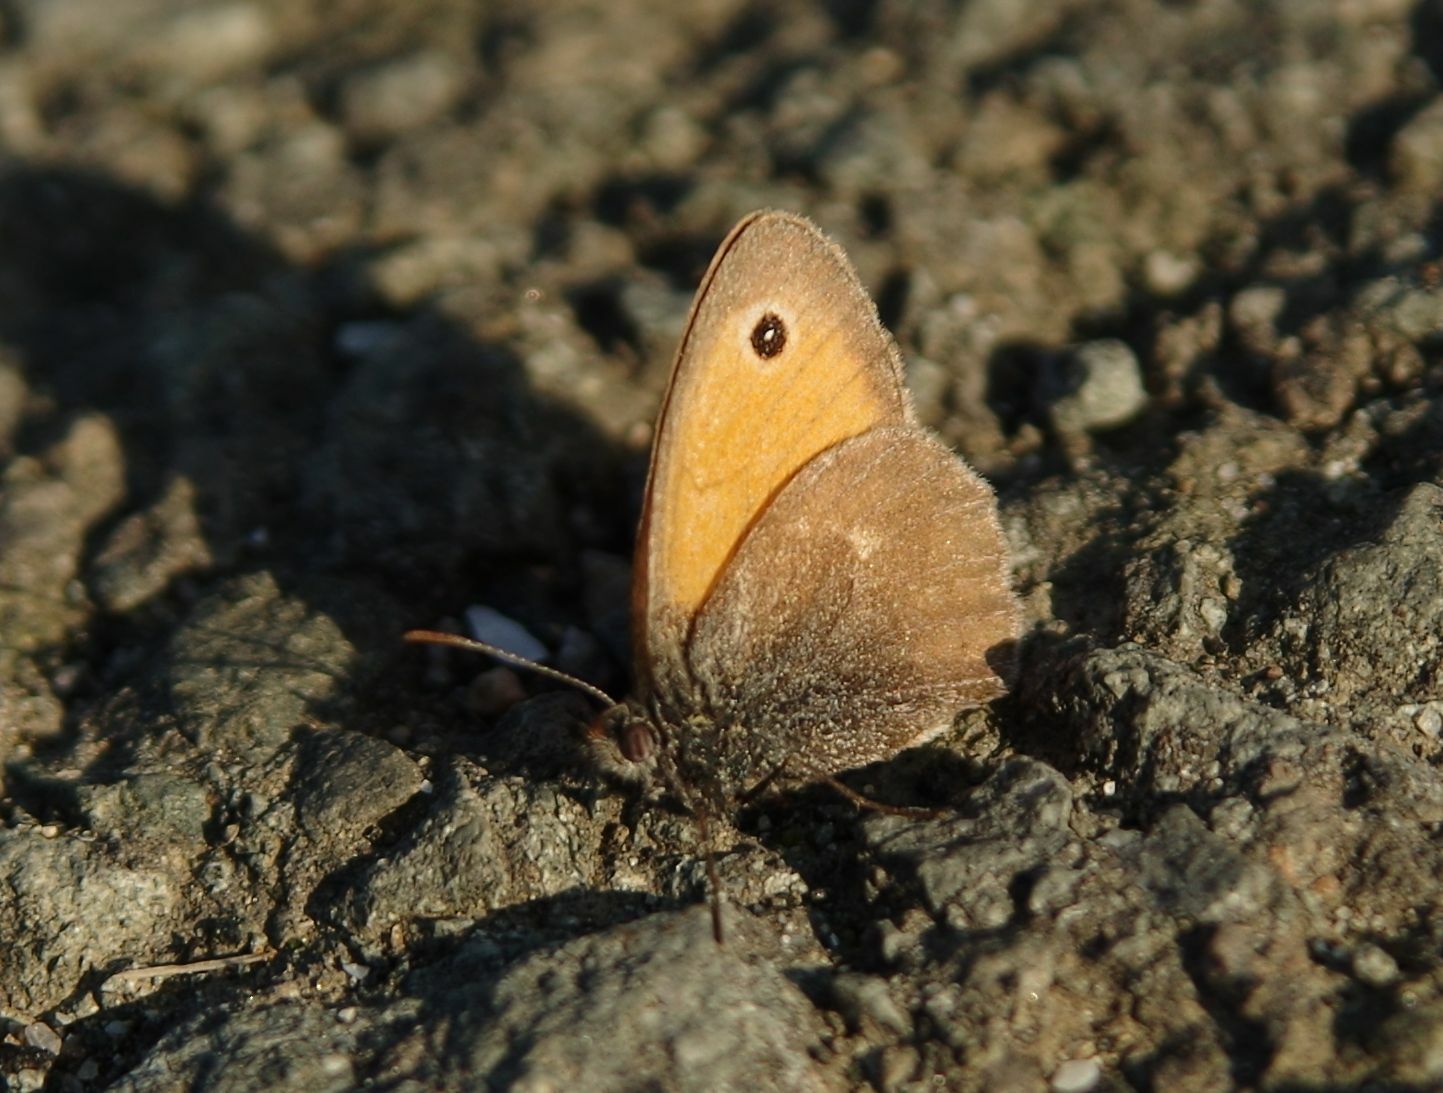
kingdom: Animalia
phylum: Arthropoda
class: Insecta
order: Lepidoptera
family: Nymphalidae
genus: Coenonympha
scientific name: Coenonympha pamphilus
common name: Small heath
